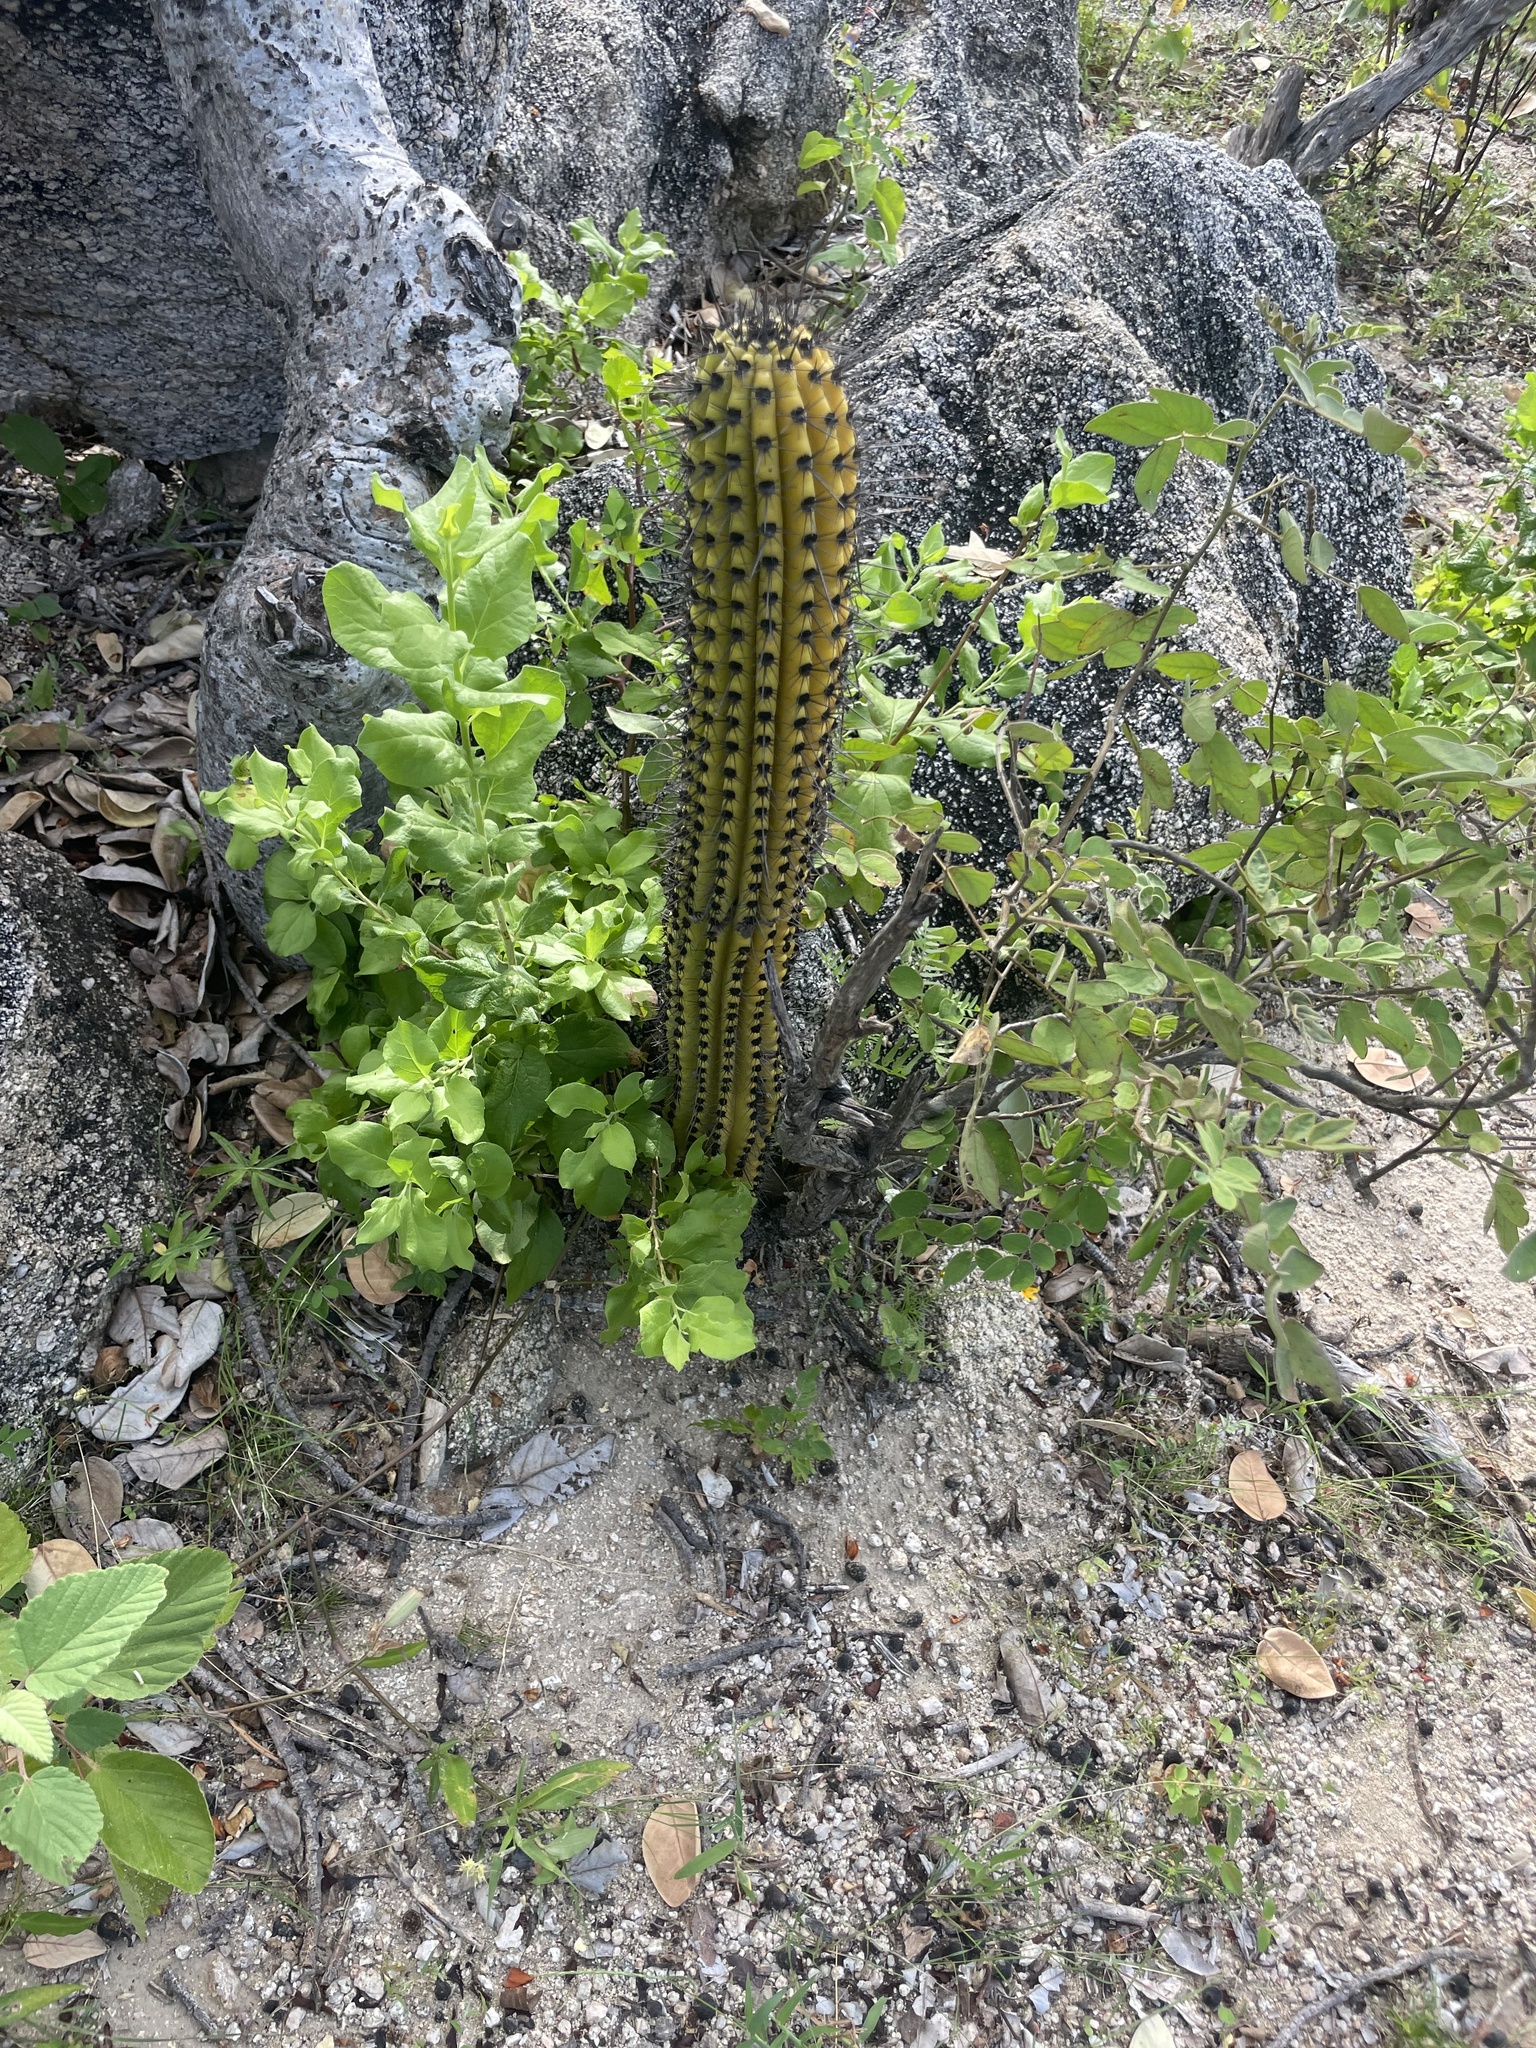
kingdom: Plantae
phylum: Tracheophyta
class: Magnoliopsida
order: Caryophyllales
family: Cactaceae
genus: Stenocereus
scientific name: Stenocereus thurberi
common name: Organ pipe cactus
